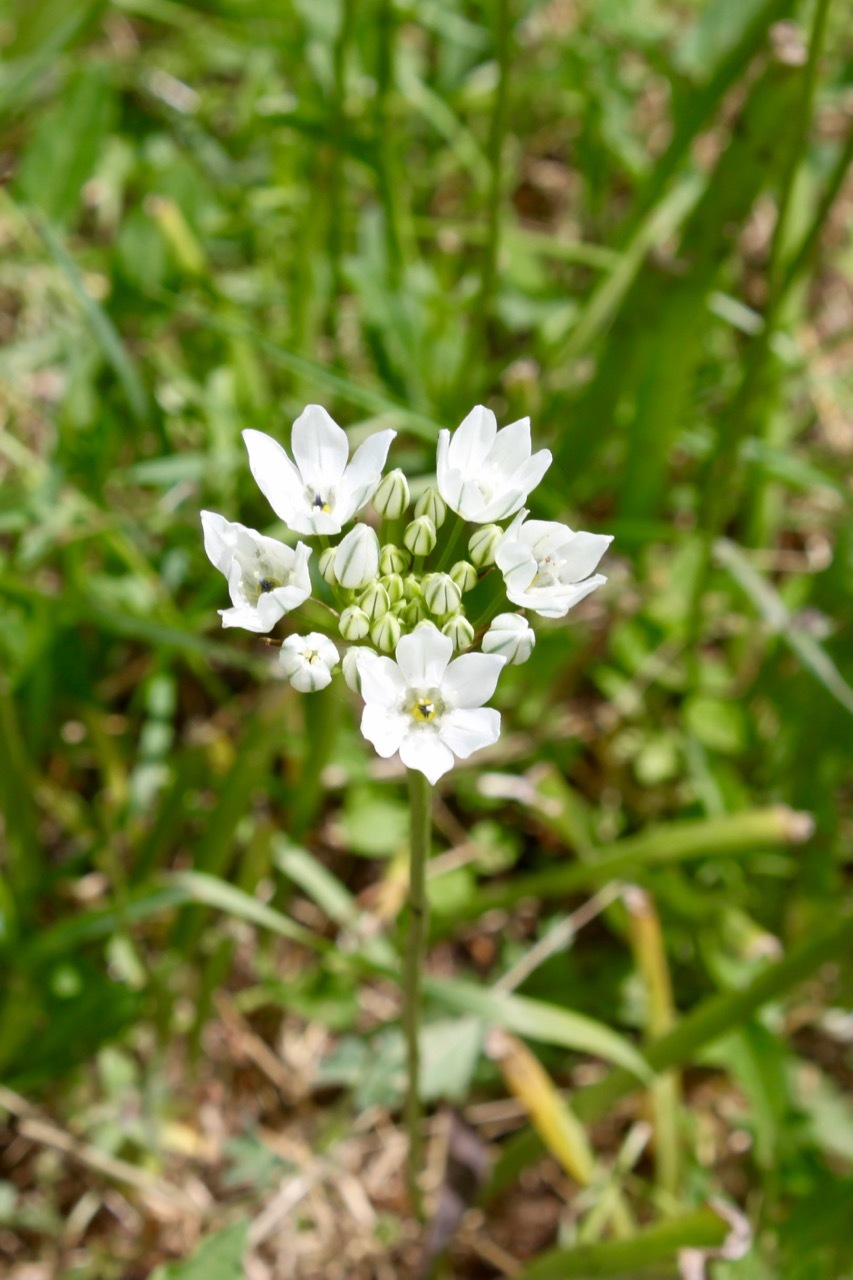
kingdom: Plantae
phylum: Tracheophyta
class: Liliopsida
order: Asparagales
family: Asparagaceae
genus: Triteleia
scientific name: Triteleia hyacinthina
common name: White brodiaea
